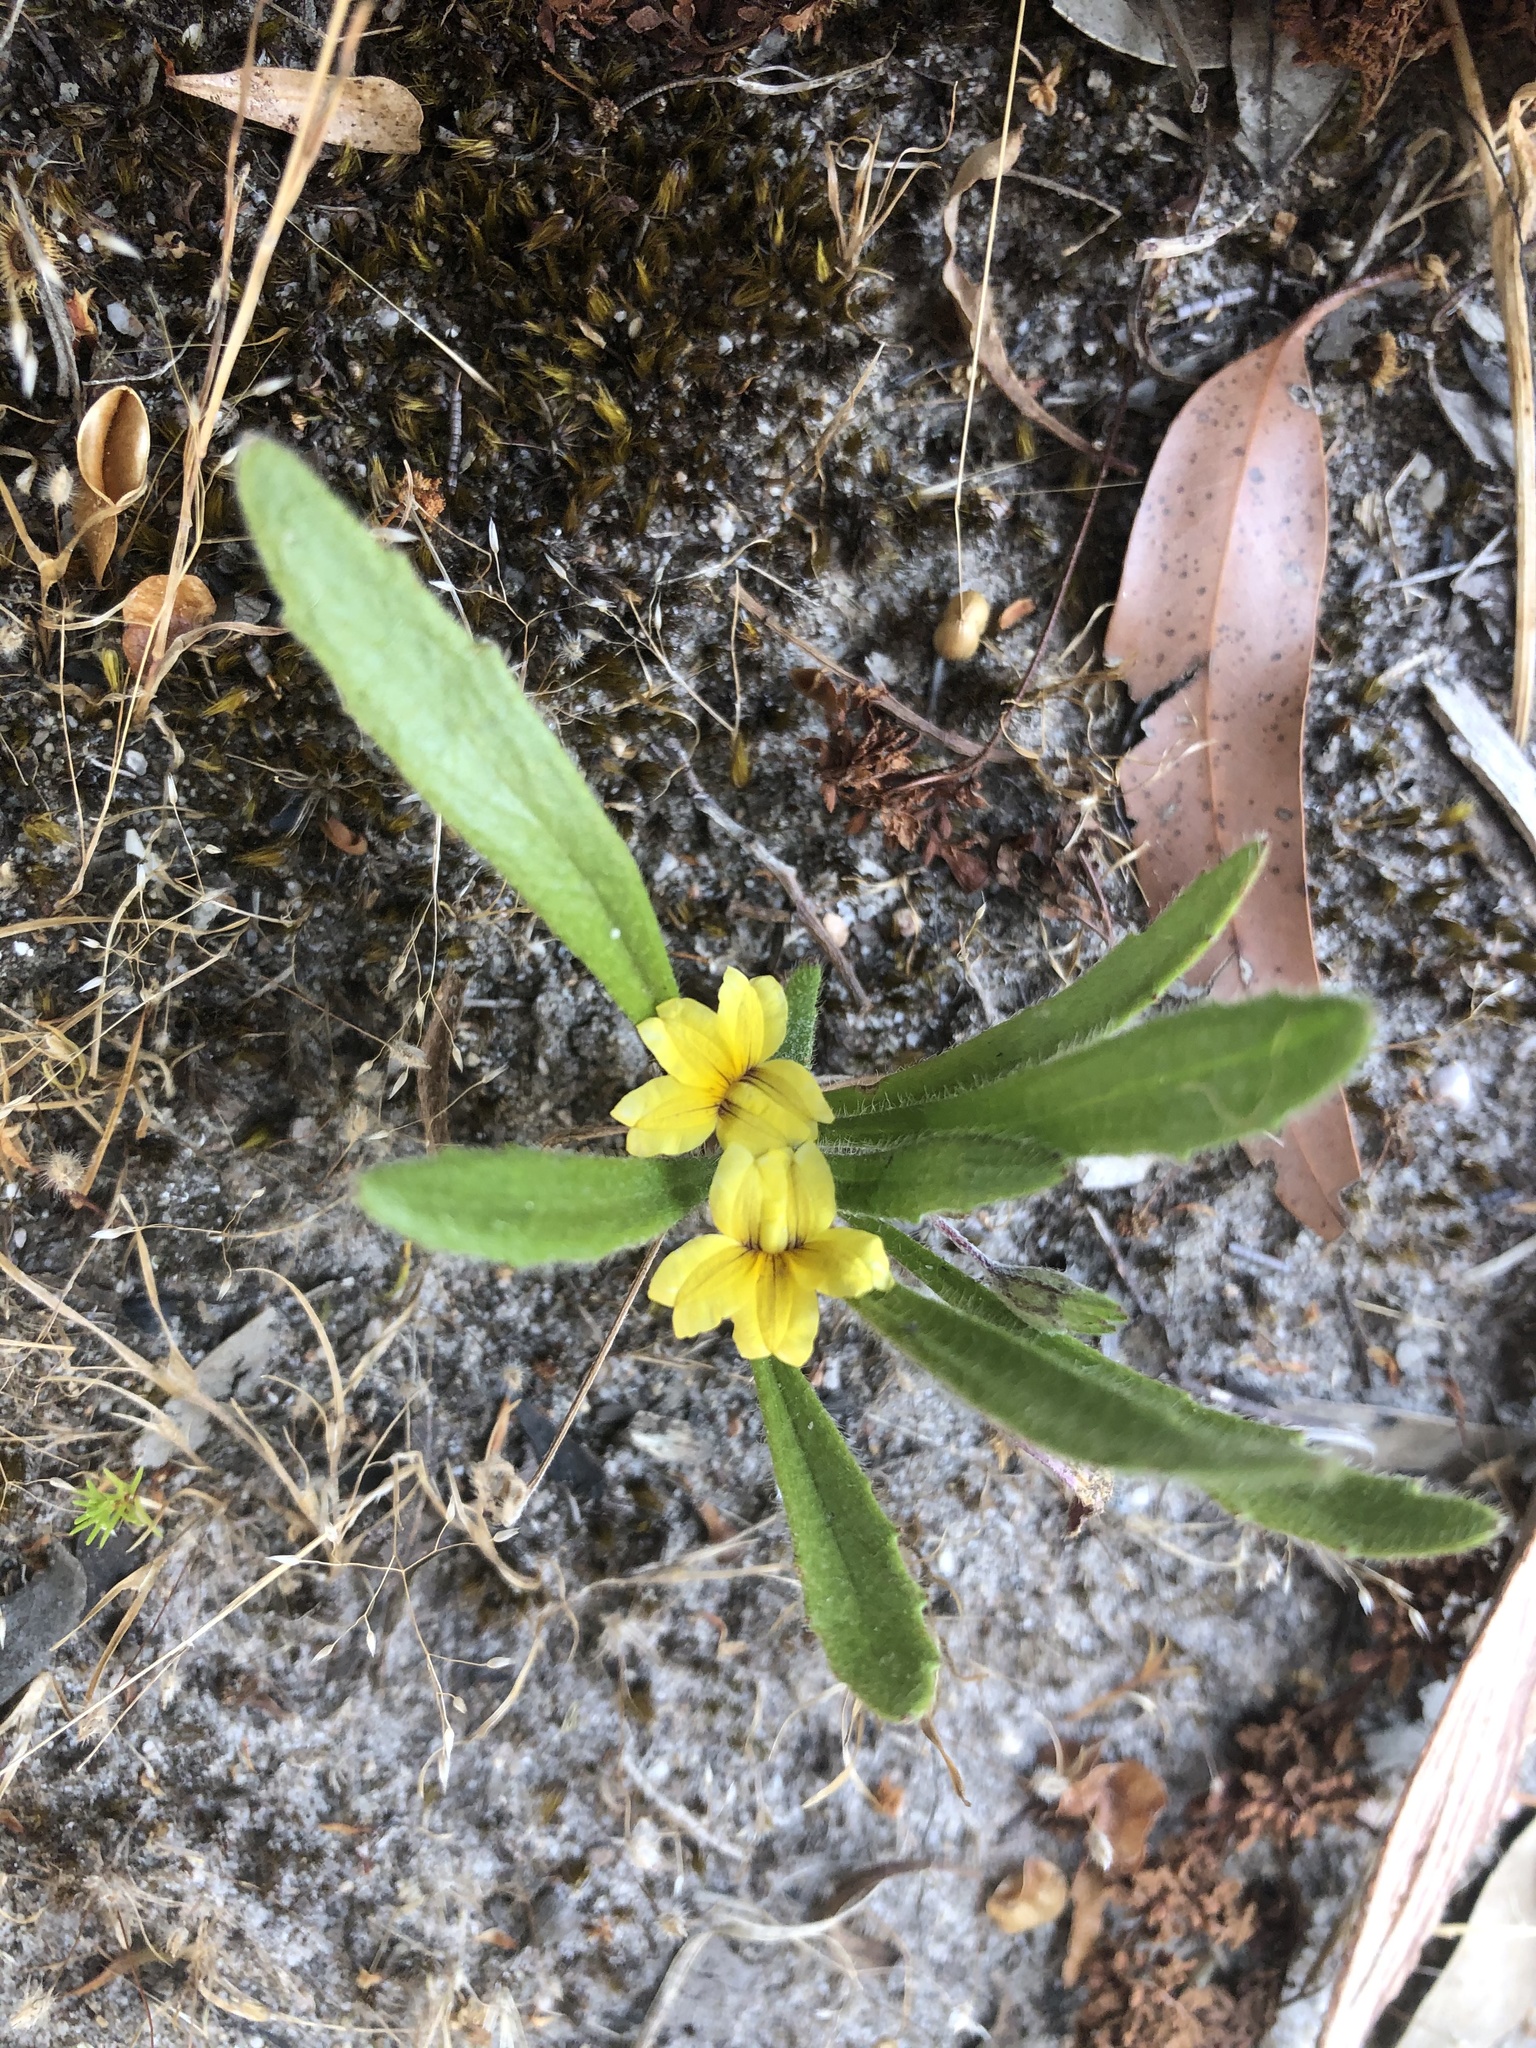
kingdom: Plantae
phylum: Tracheophyta
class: Magnoliopsida
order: Asterales
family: Goodeniaceae
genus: Goodenia
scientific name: Goodenia geniculata
